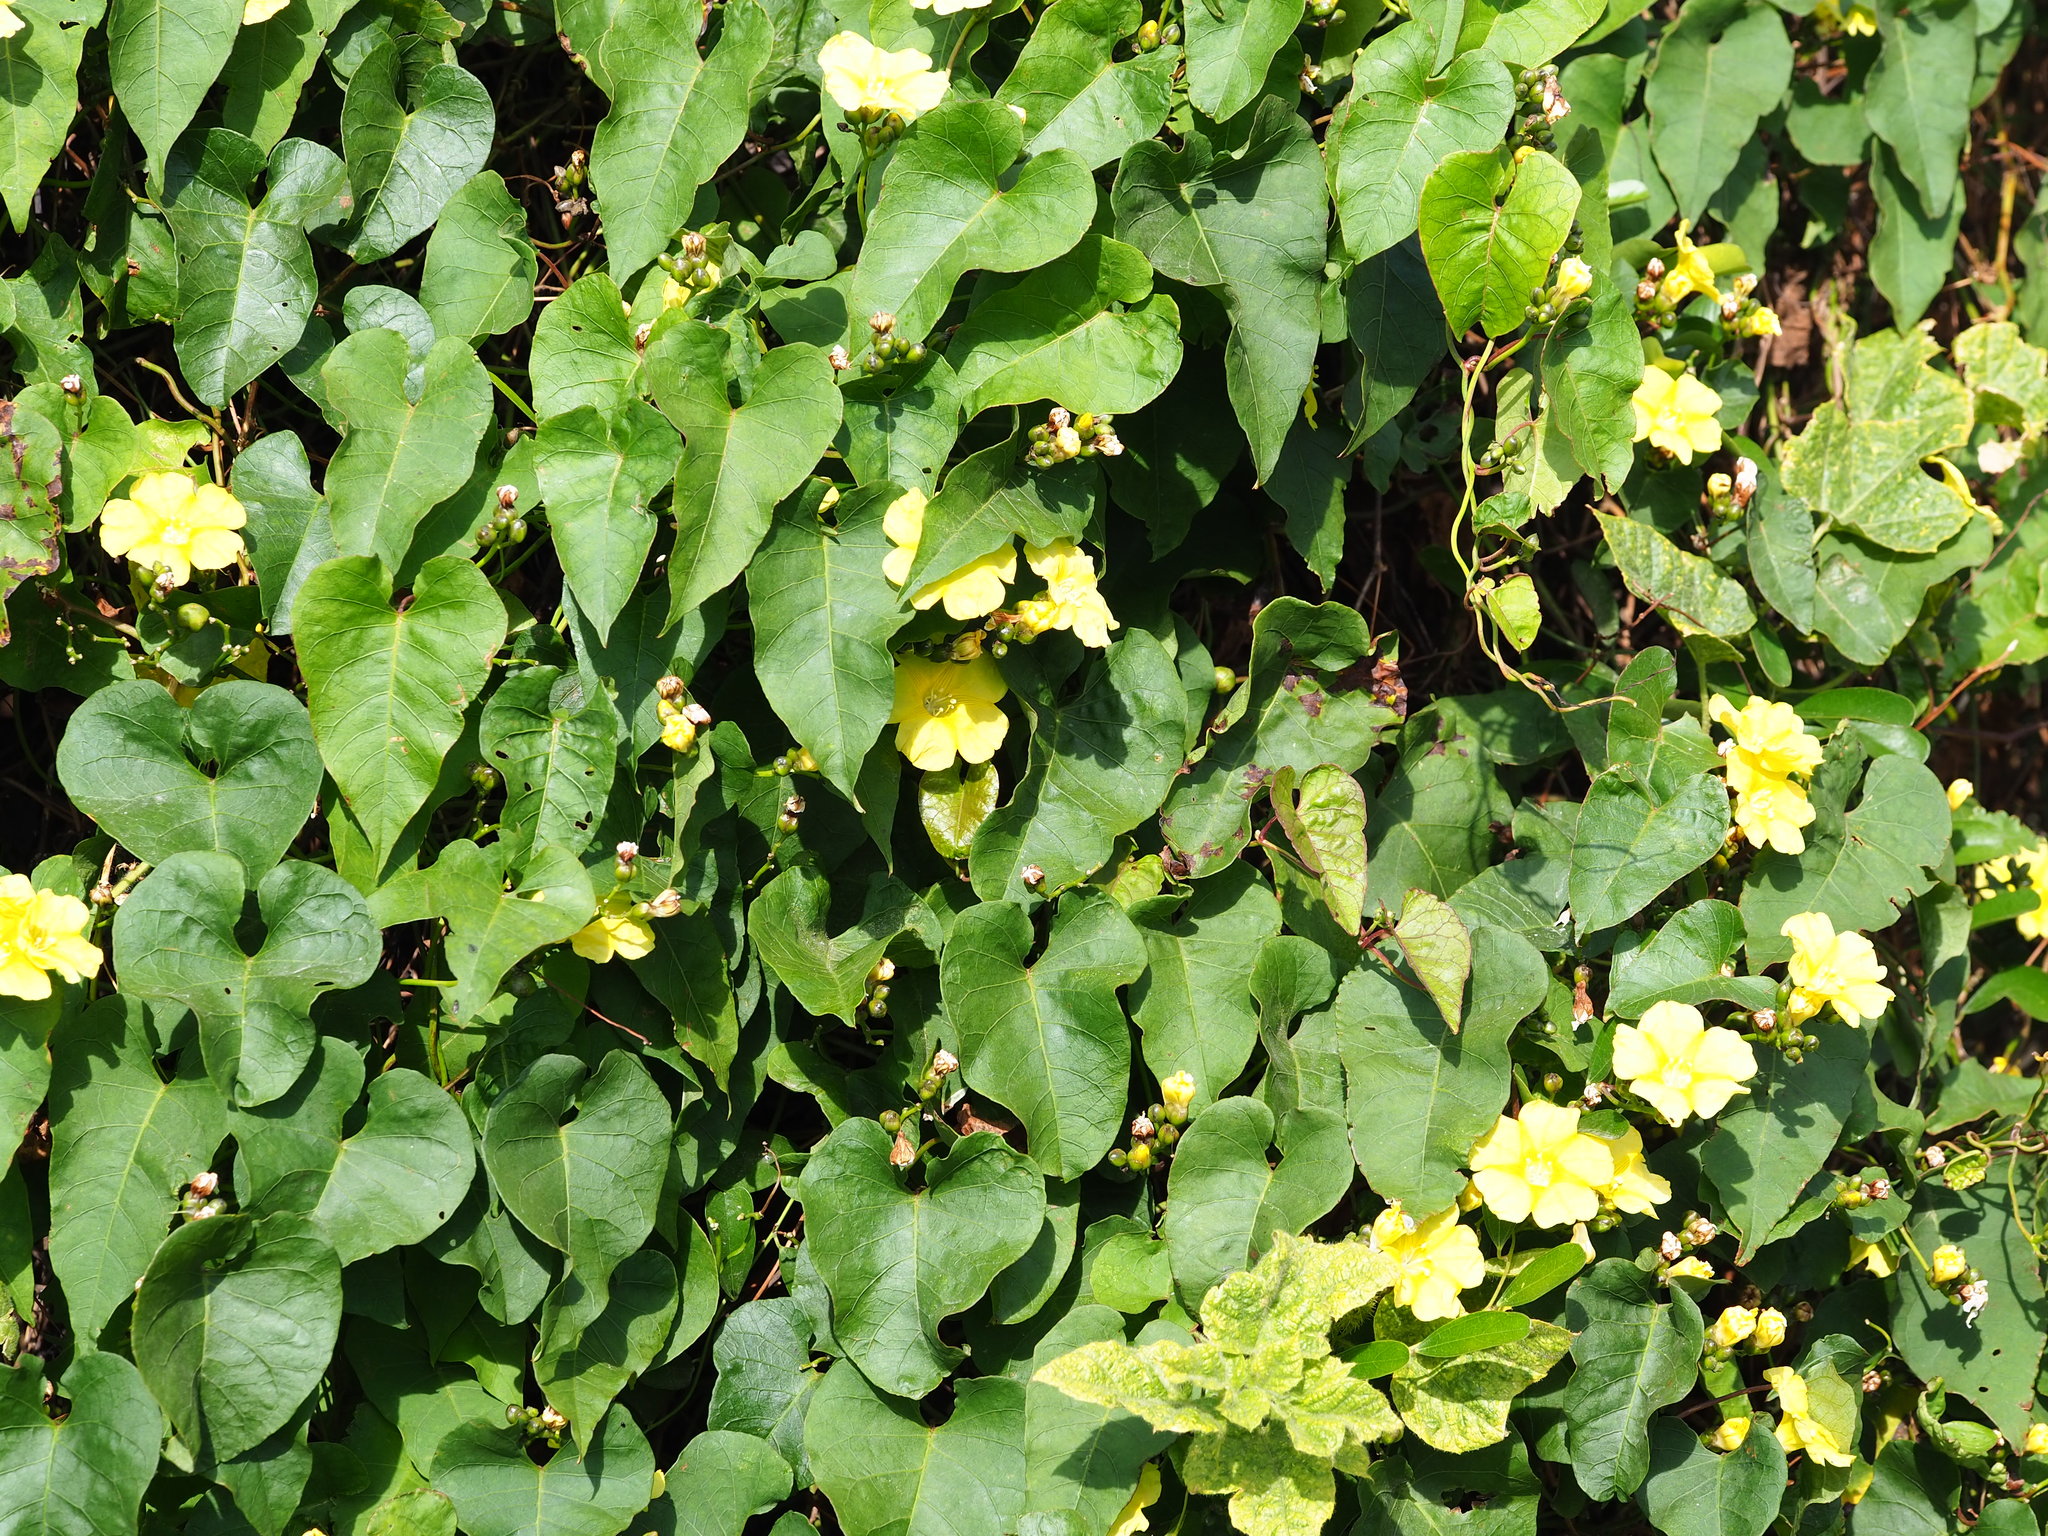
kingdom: Plantae
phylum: Tracheophyta
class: Magnoliopsida
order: Solanales
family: Convolvulaceae
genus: Merremia
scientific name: Merremia gemella
